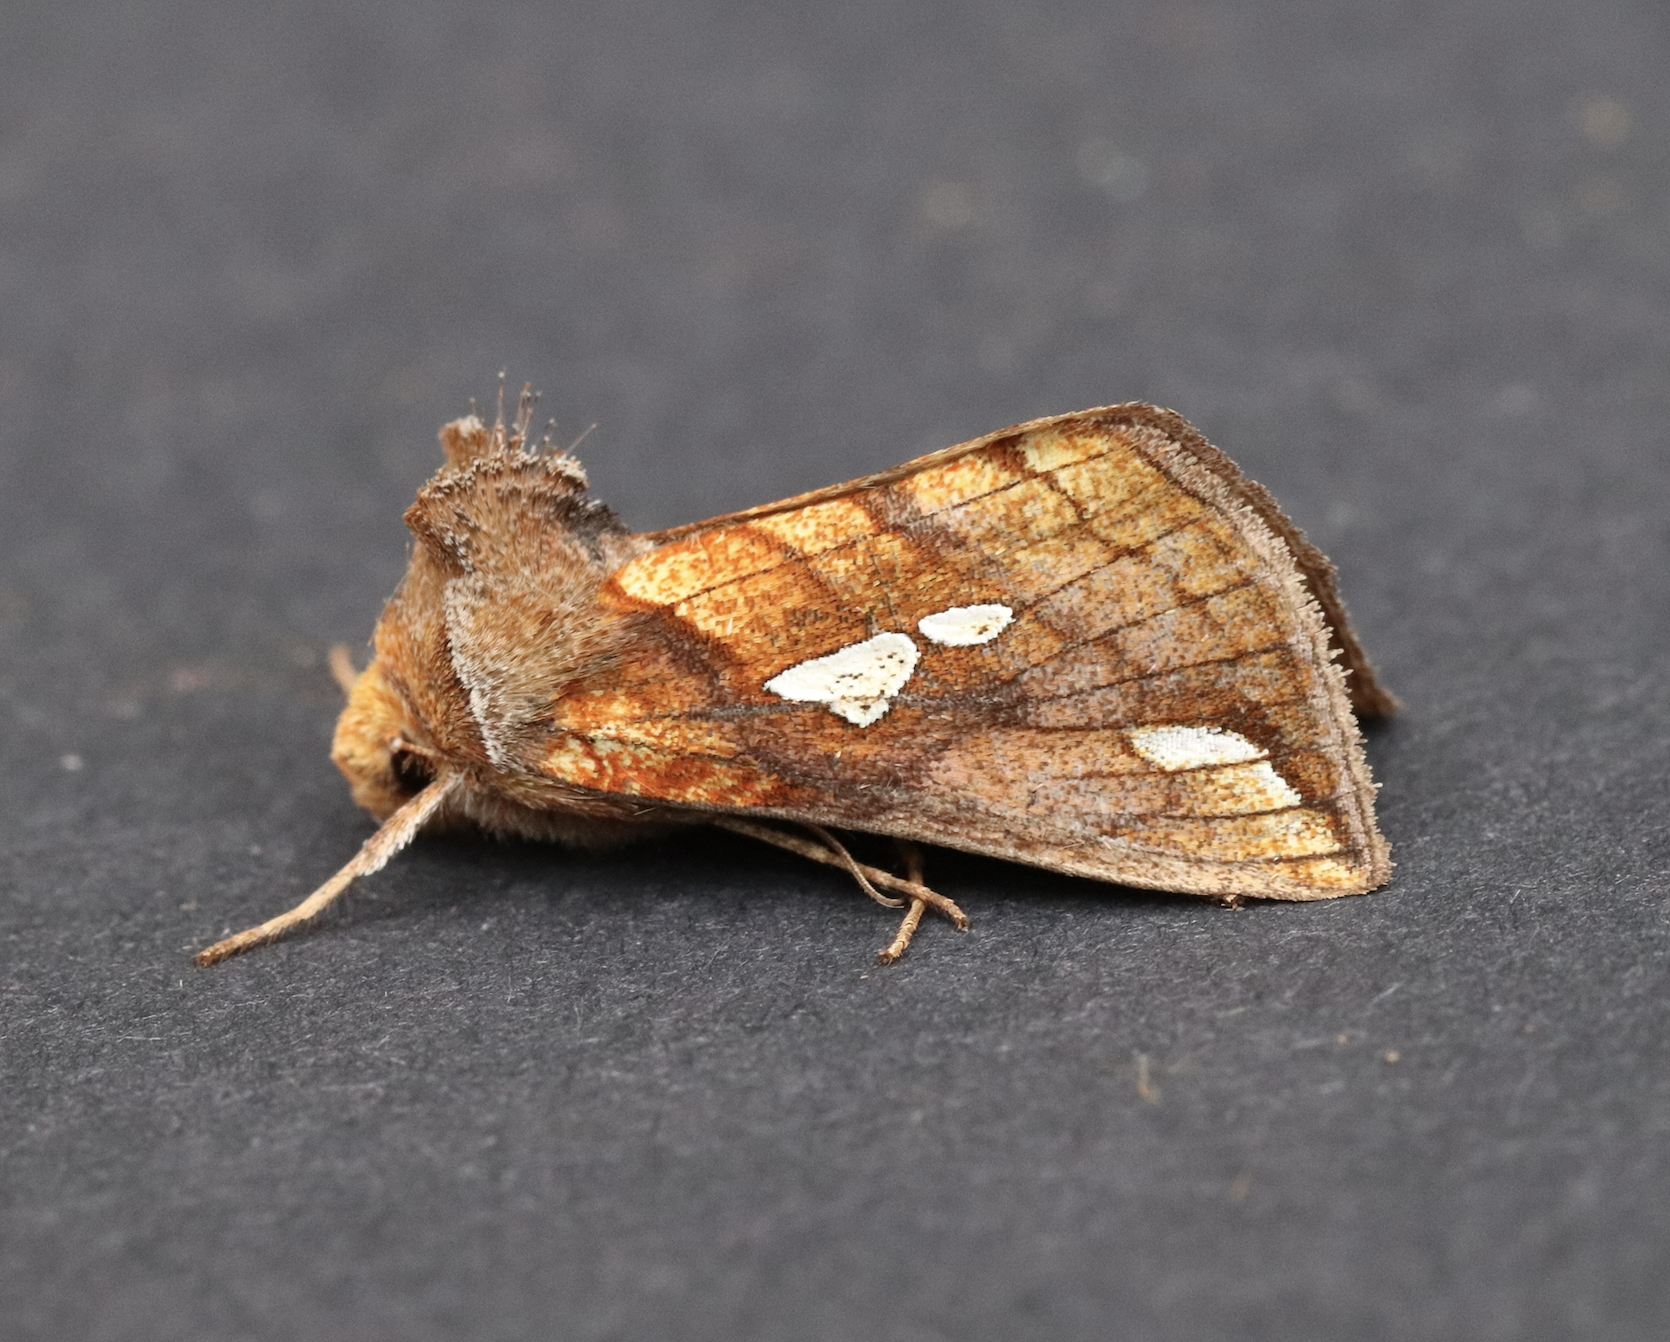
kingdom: Animalia
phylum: Arthropoda
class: Insecta
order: Lepidoptera
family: Noctuidae
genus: Plusia
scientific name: Plusia putnami
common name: Lempke's gold spot
